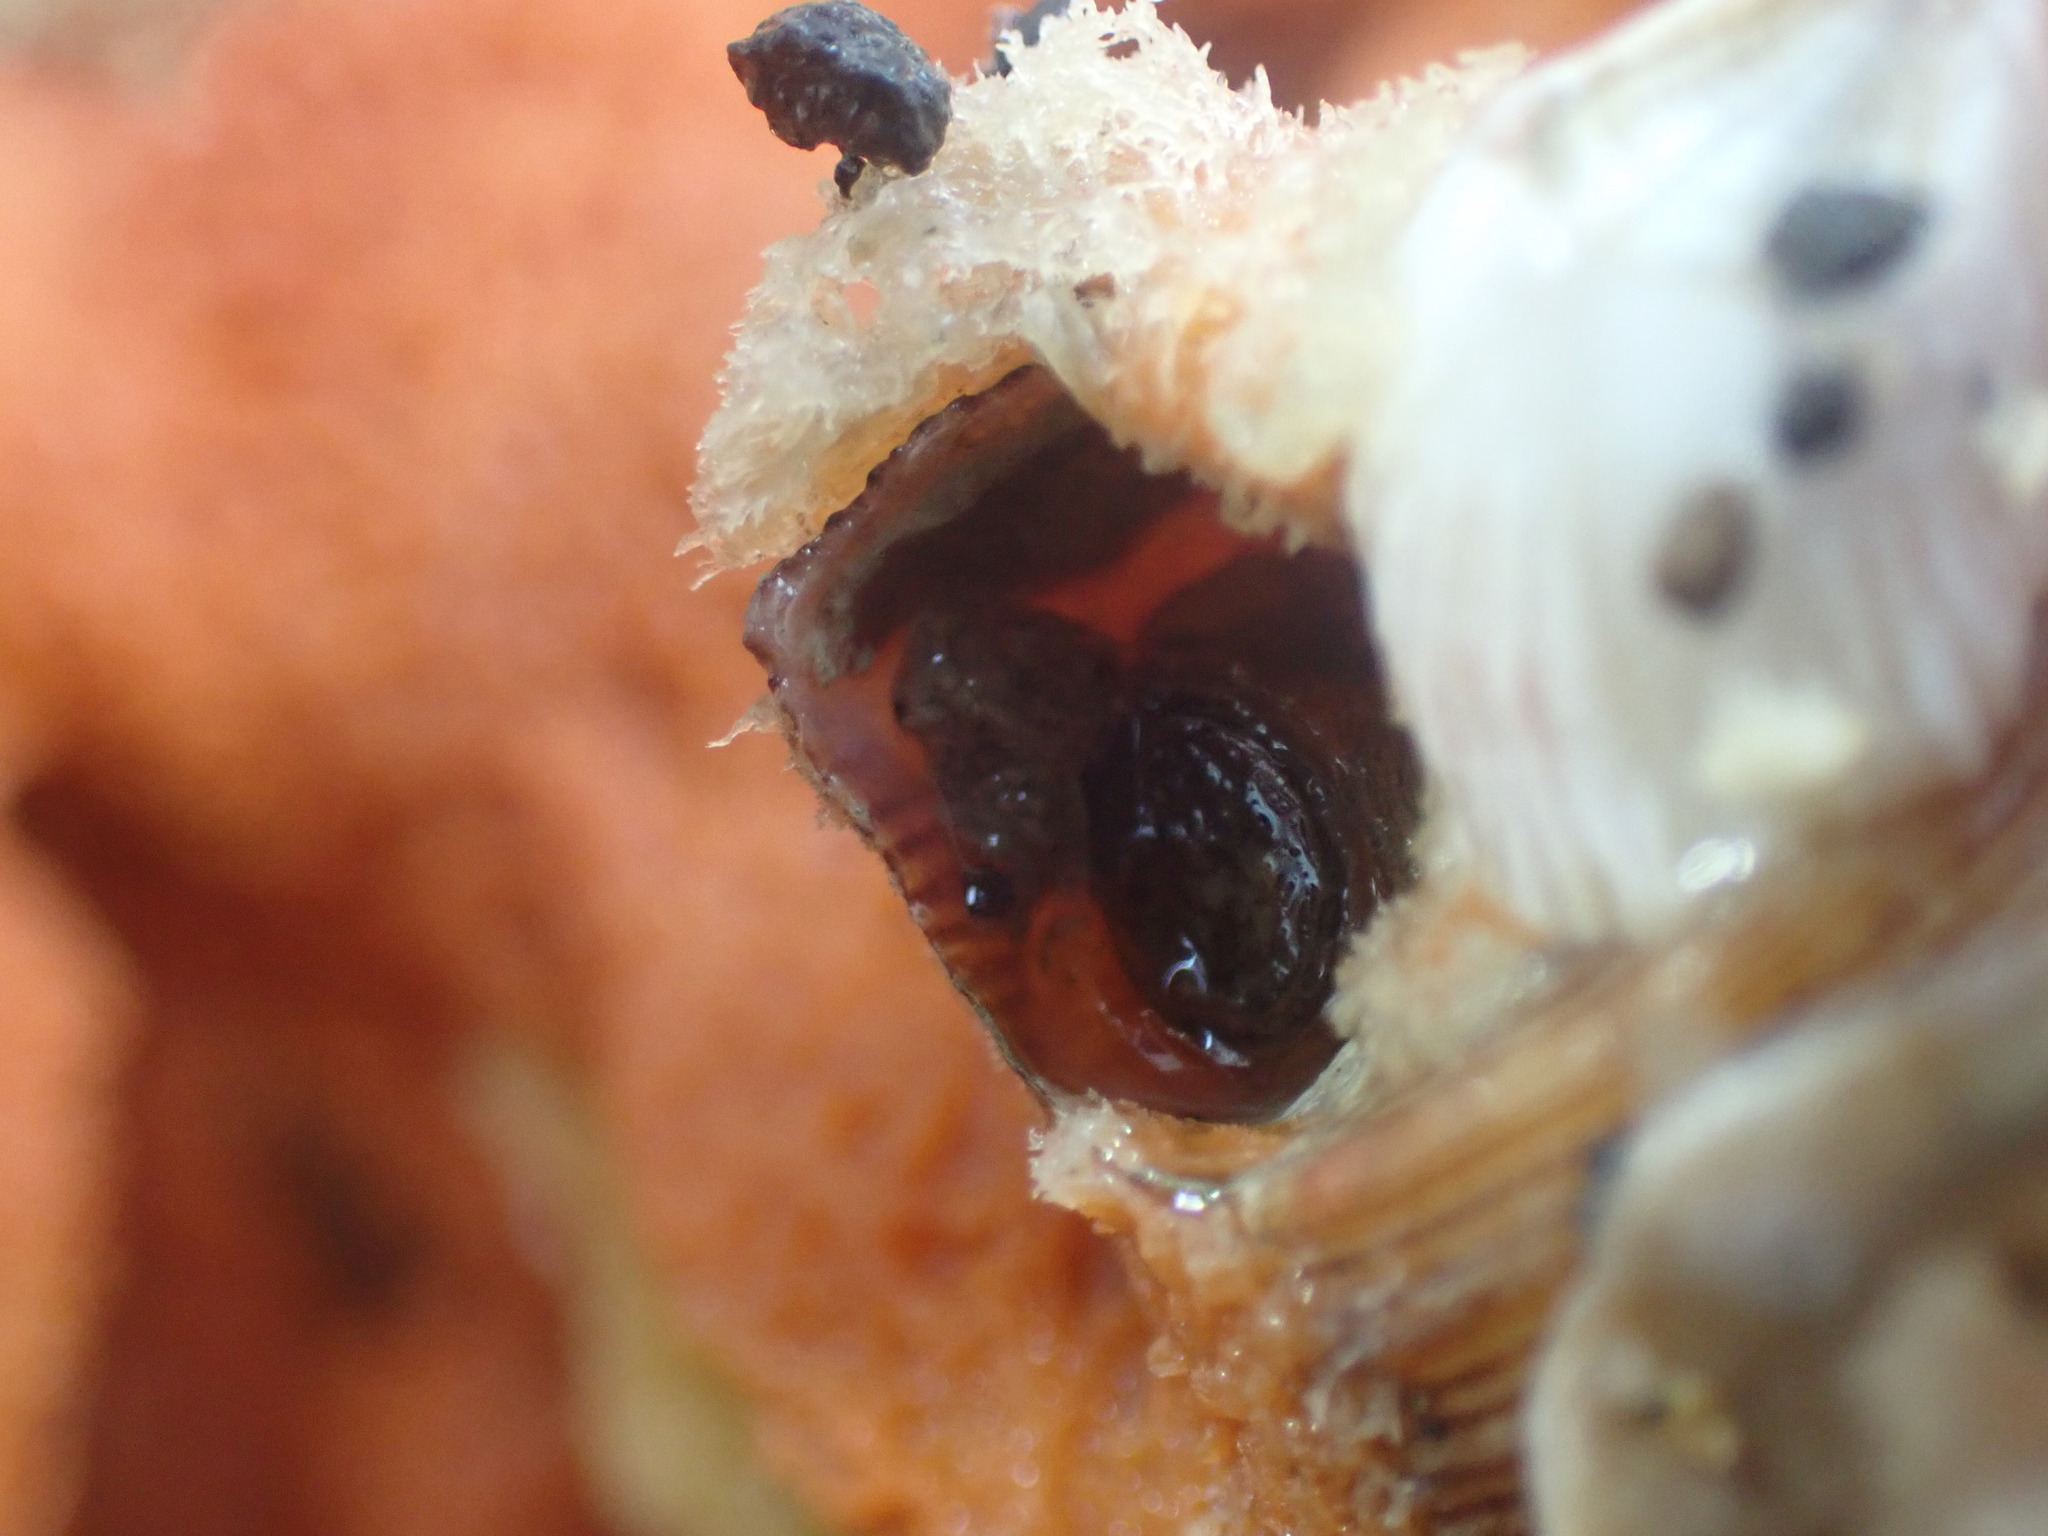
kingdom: Animalia
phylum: Mollusca
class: Gastropoda
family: Turritellidae
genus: Maoricolpus
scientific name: Maoricolpus roseus
